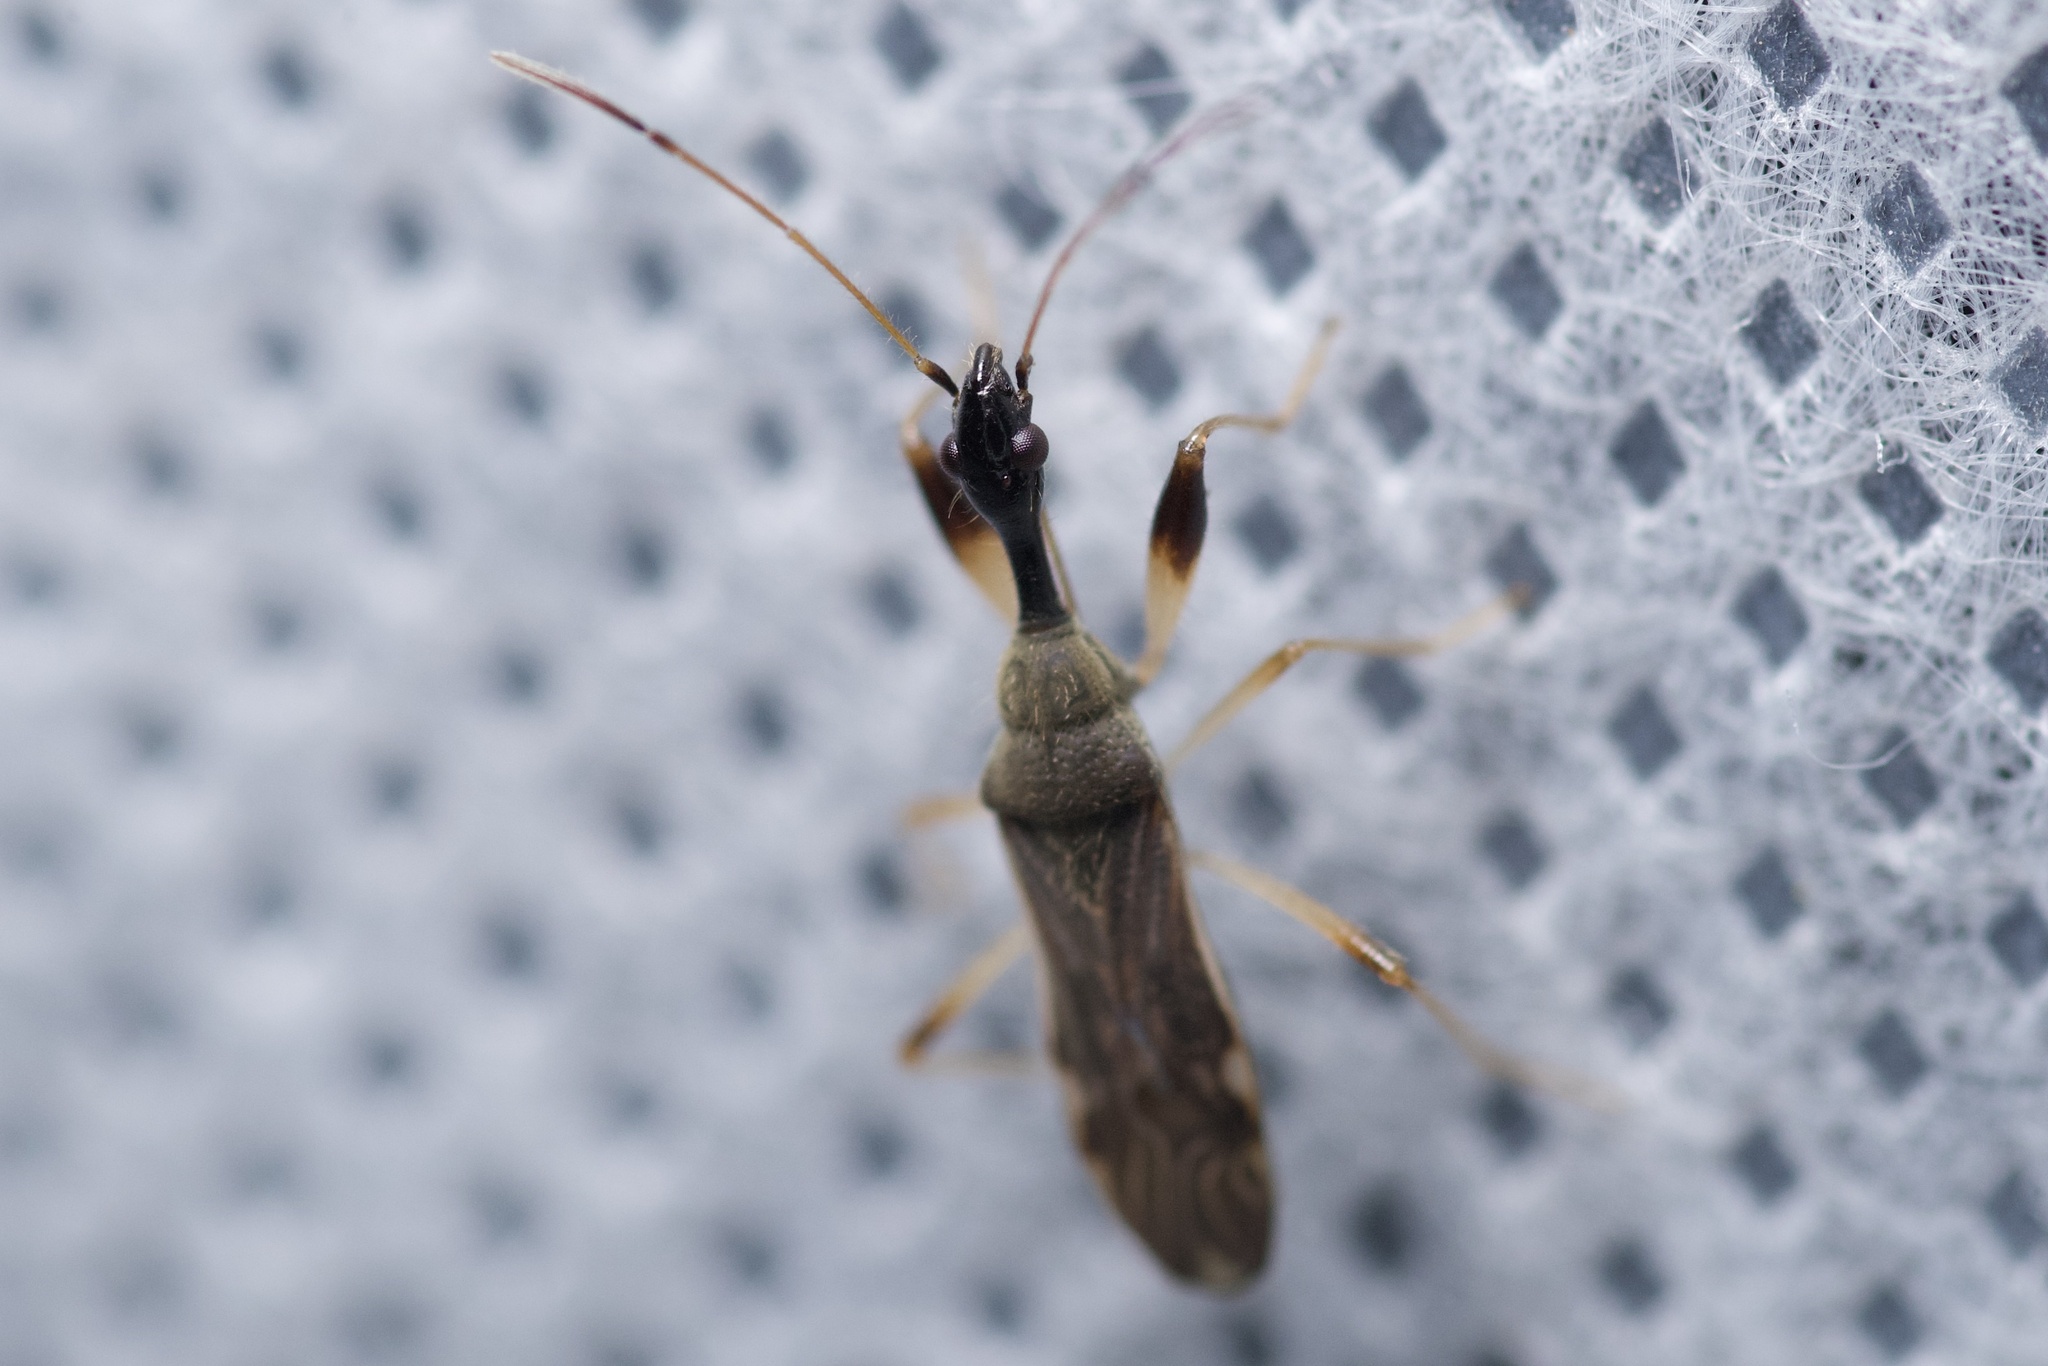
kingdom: Animalia
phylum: Arthropoda
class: Insecta
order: Hemiptera
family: Rhyparochromidae
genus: Myodocha
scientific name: Myodocha serripes
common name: Long-necked seed bug
